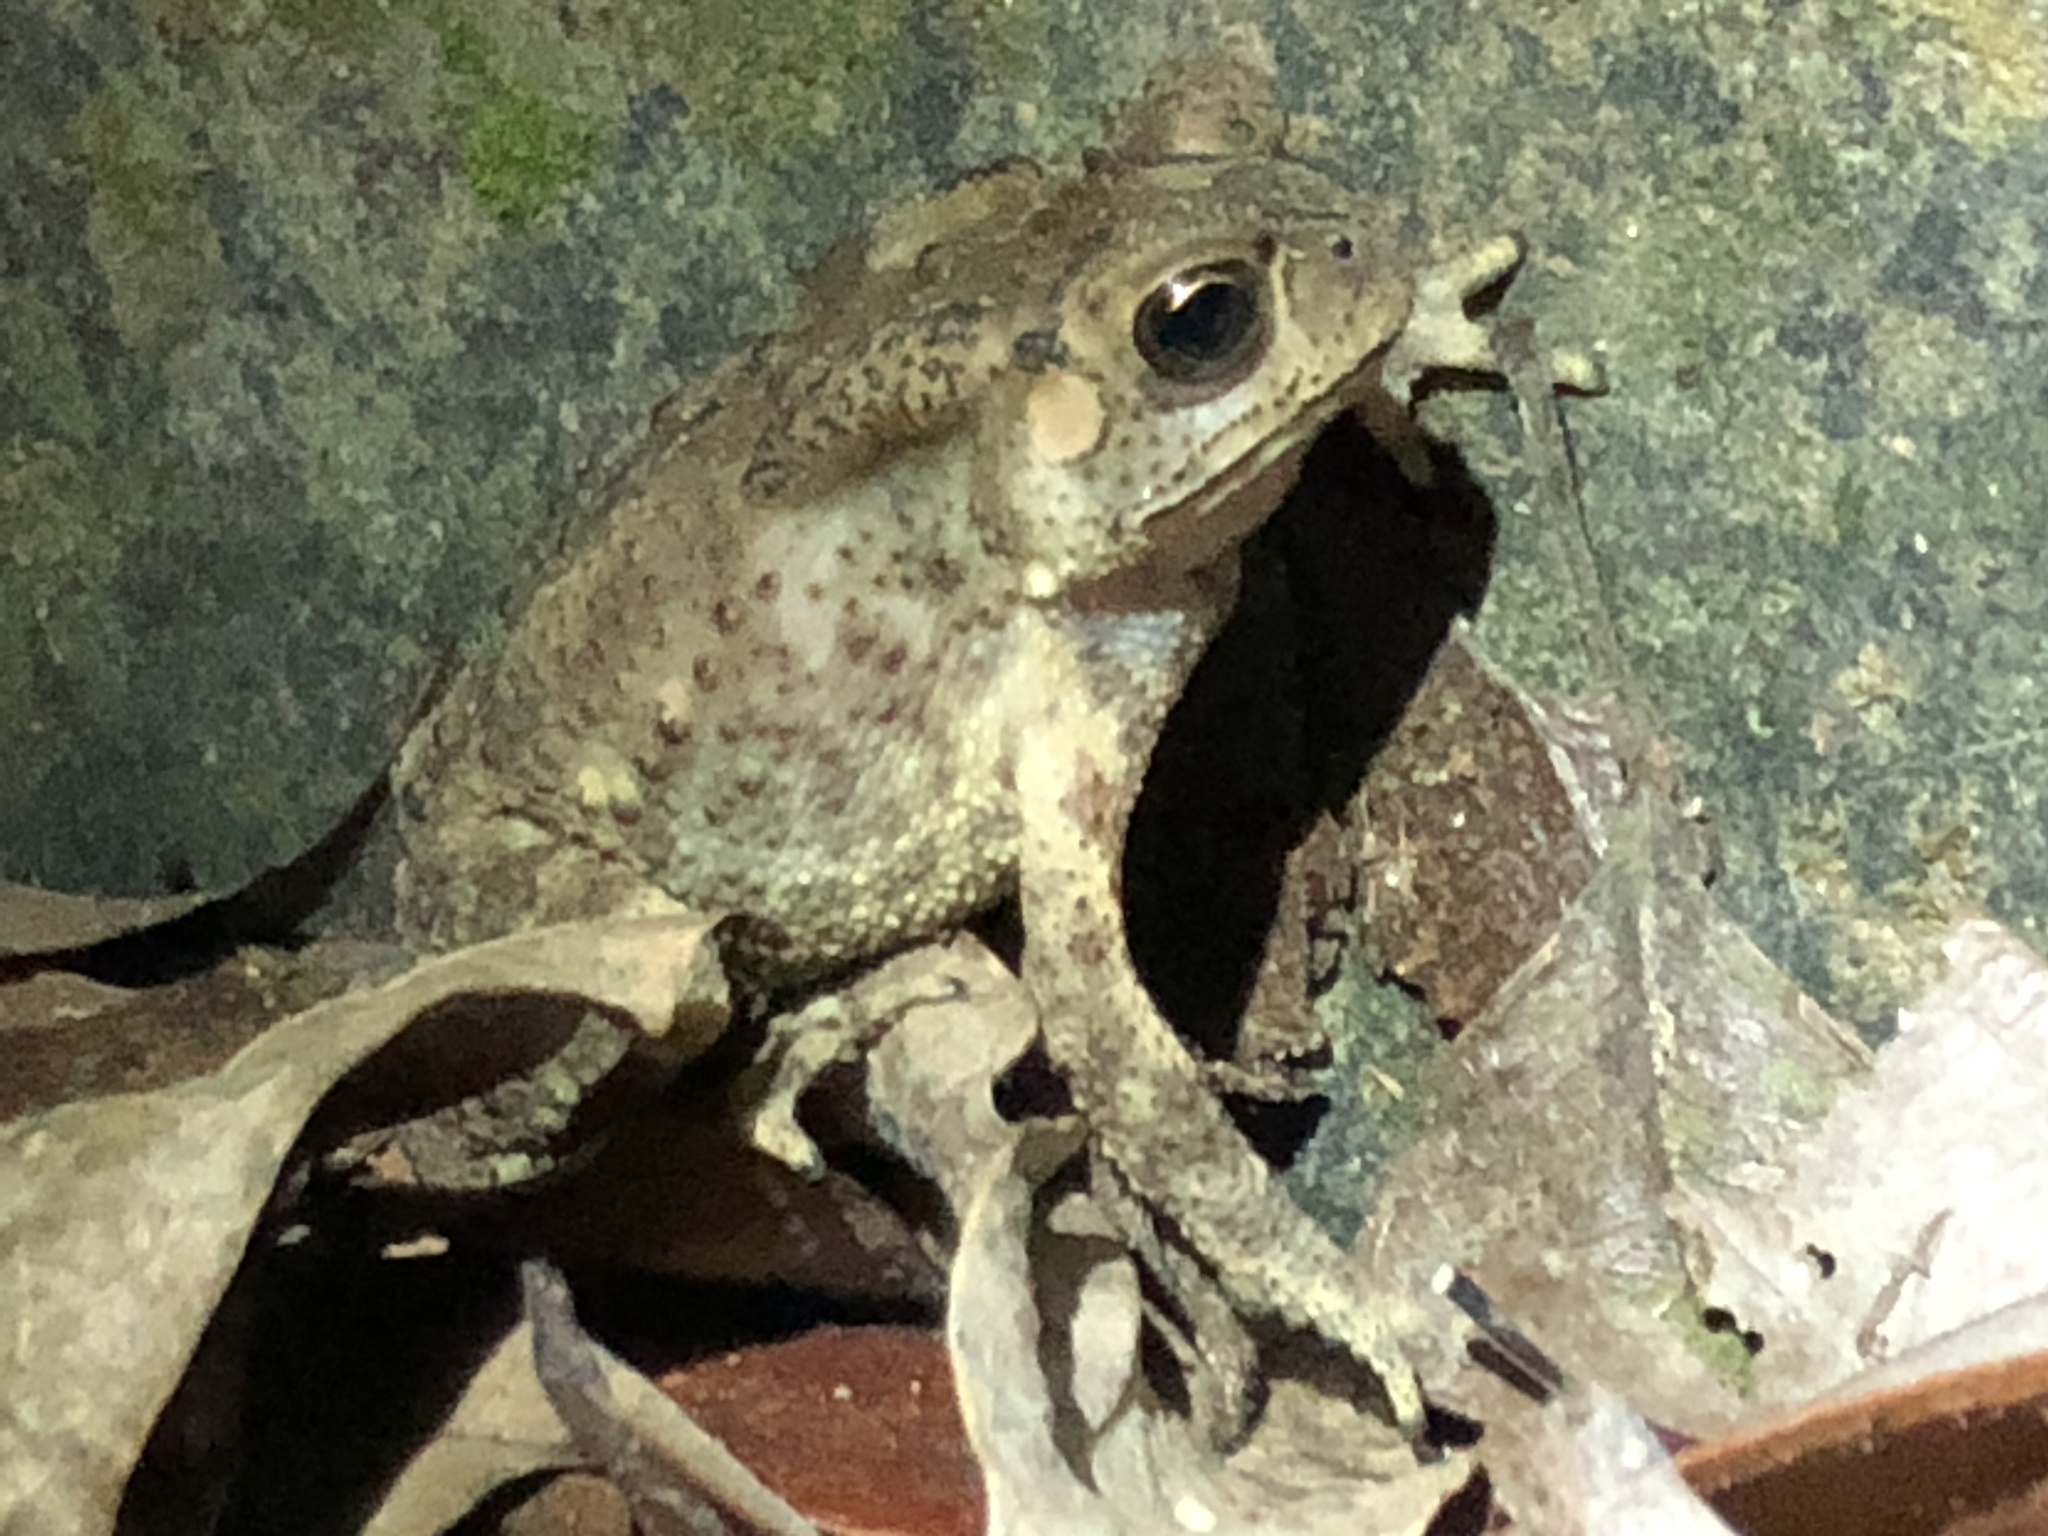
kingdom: Animalia
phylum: Chordata
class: Amphibia
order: Anura
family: Bufonidae
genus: Duttaphrynus
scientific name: Duttaphrynus melanostictus
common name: Common sunda toad
